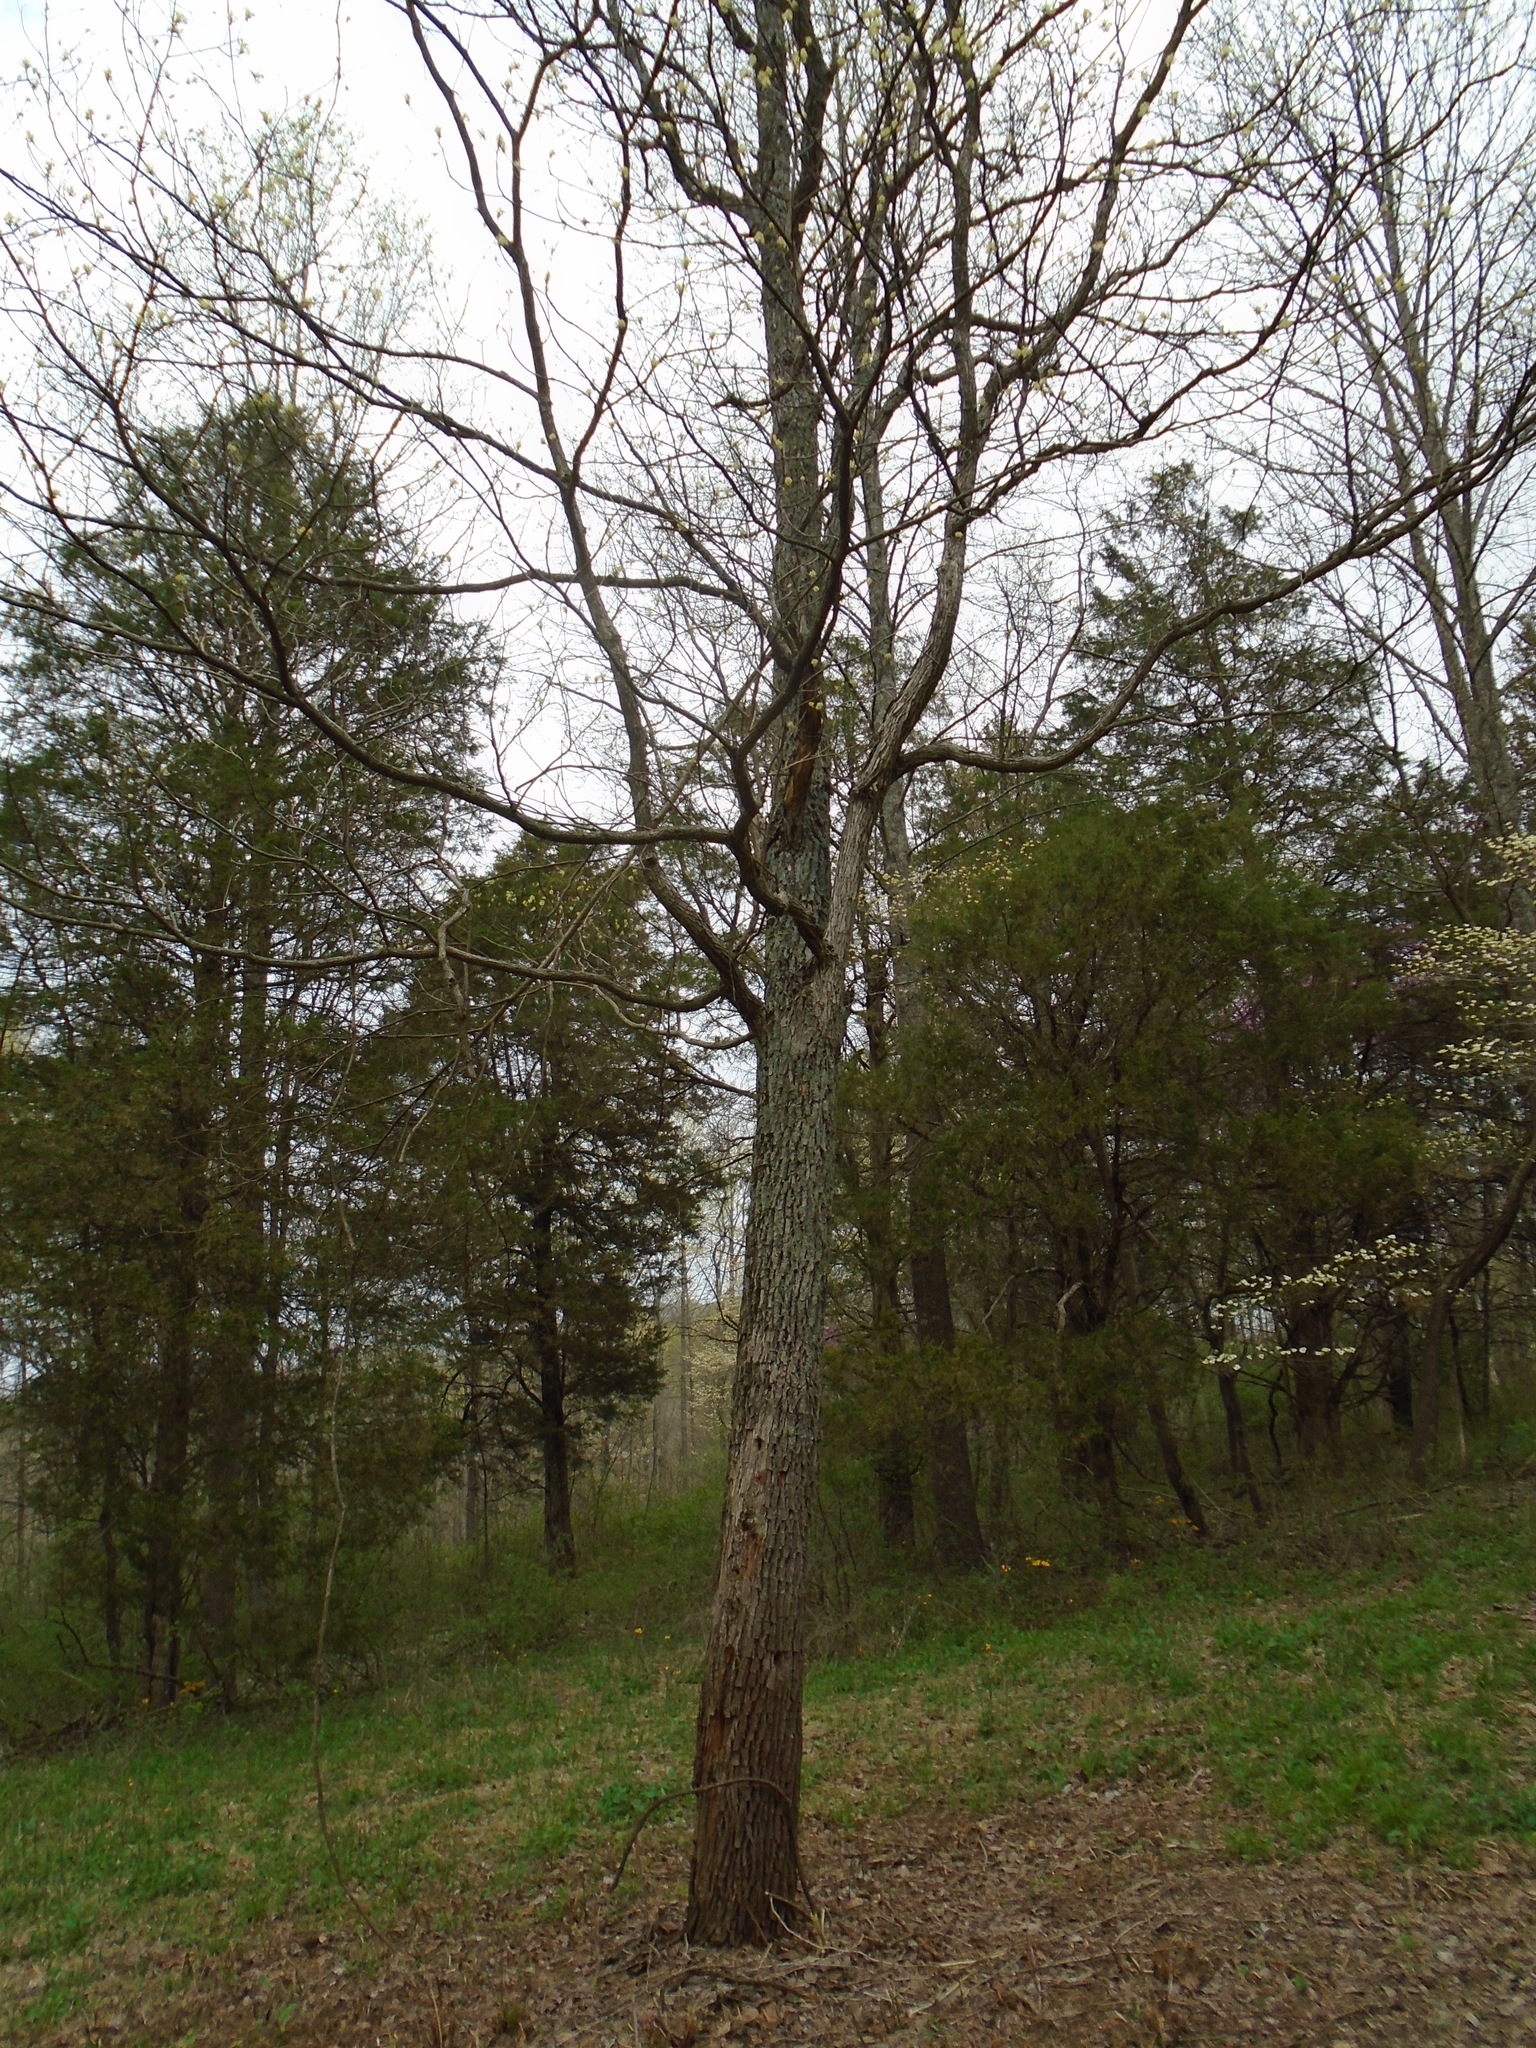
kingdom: Plantae
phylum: Tracheophyta
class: Magnoliopsida
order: Laurales
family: Lauraceae
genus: Sassafras
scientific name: Sassafras albidum
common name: Sassafras
